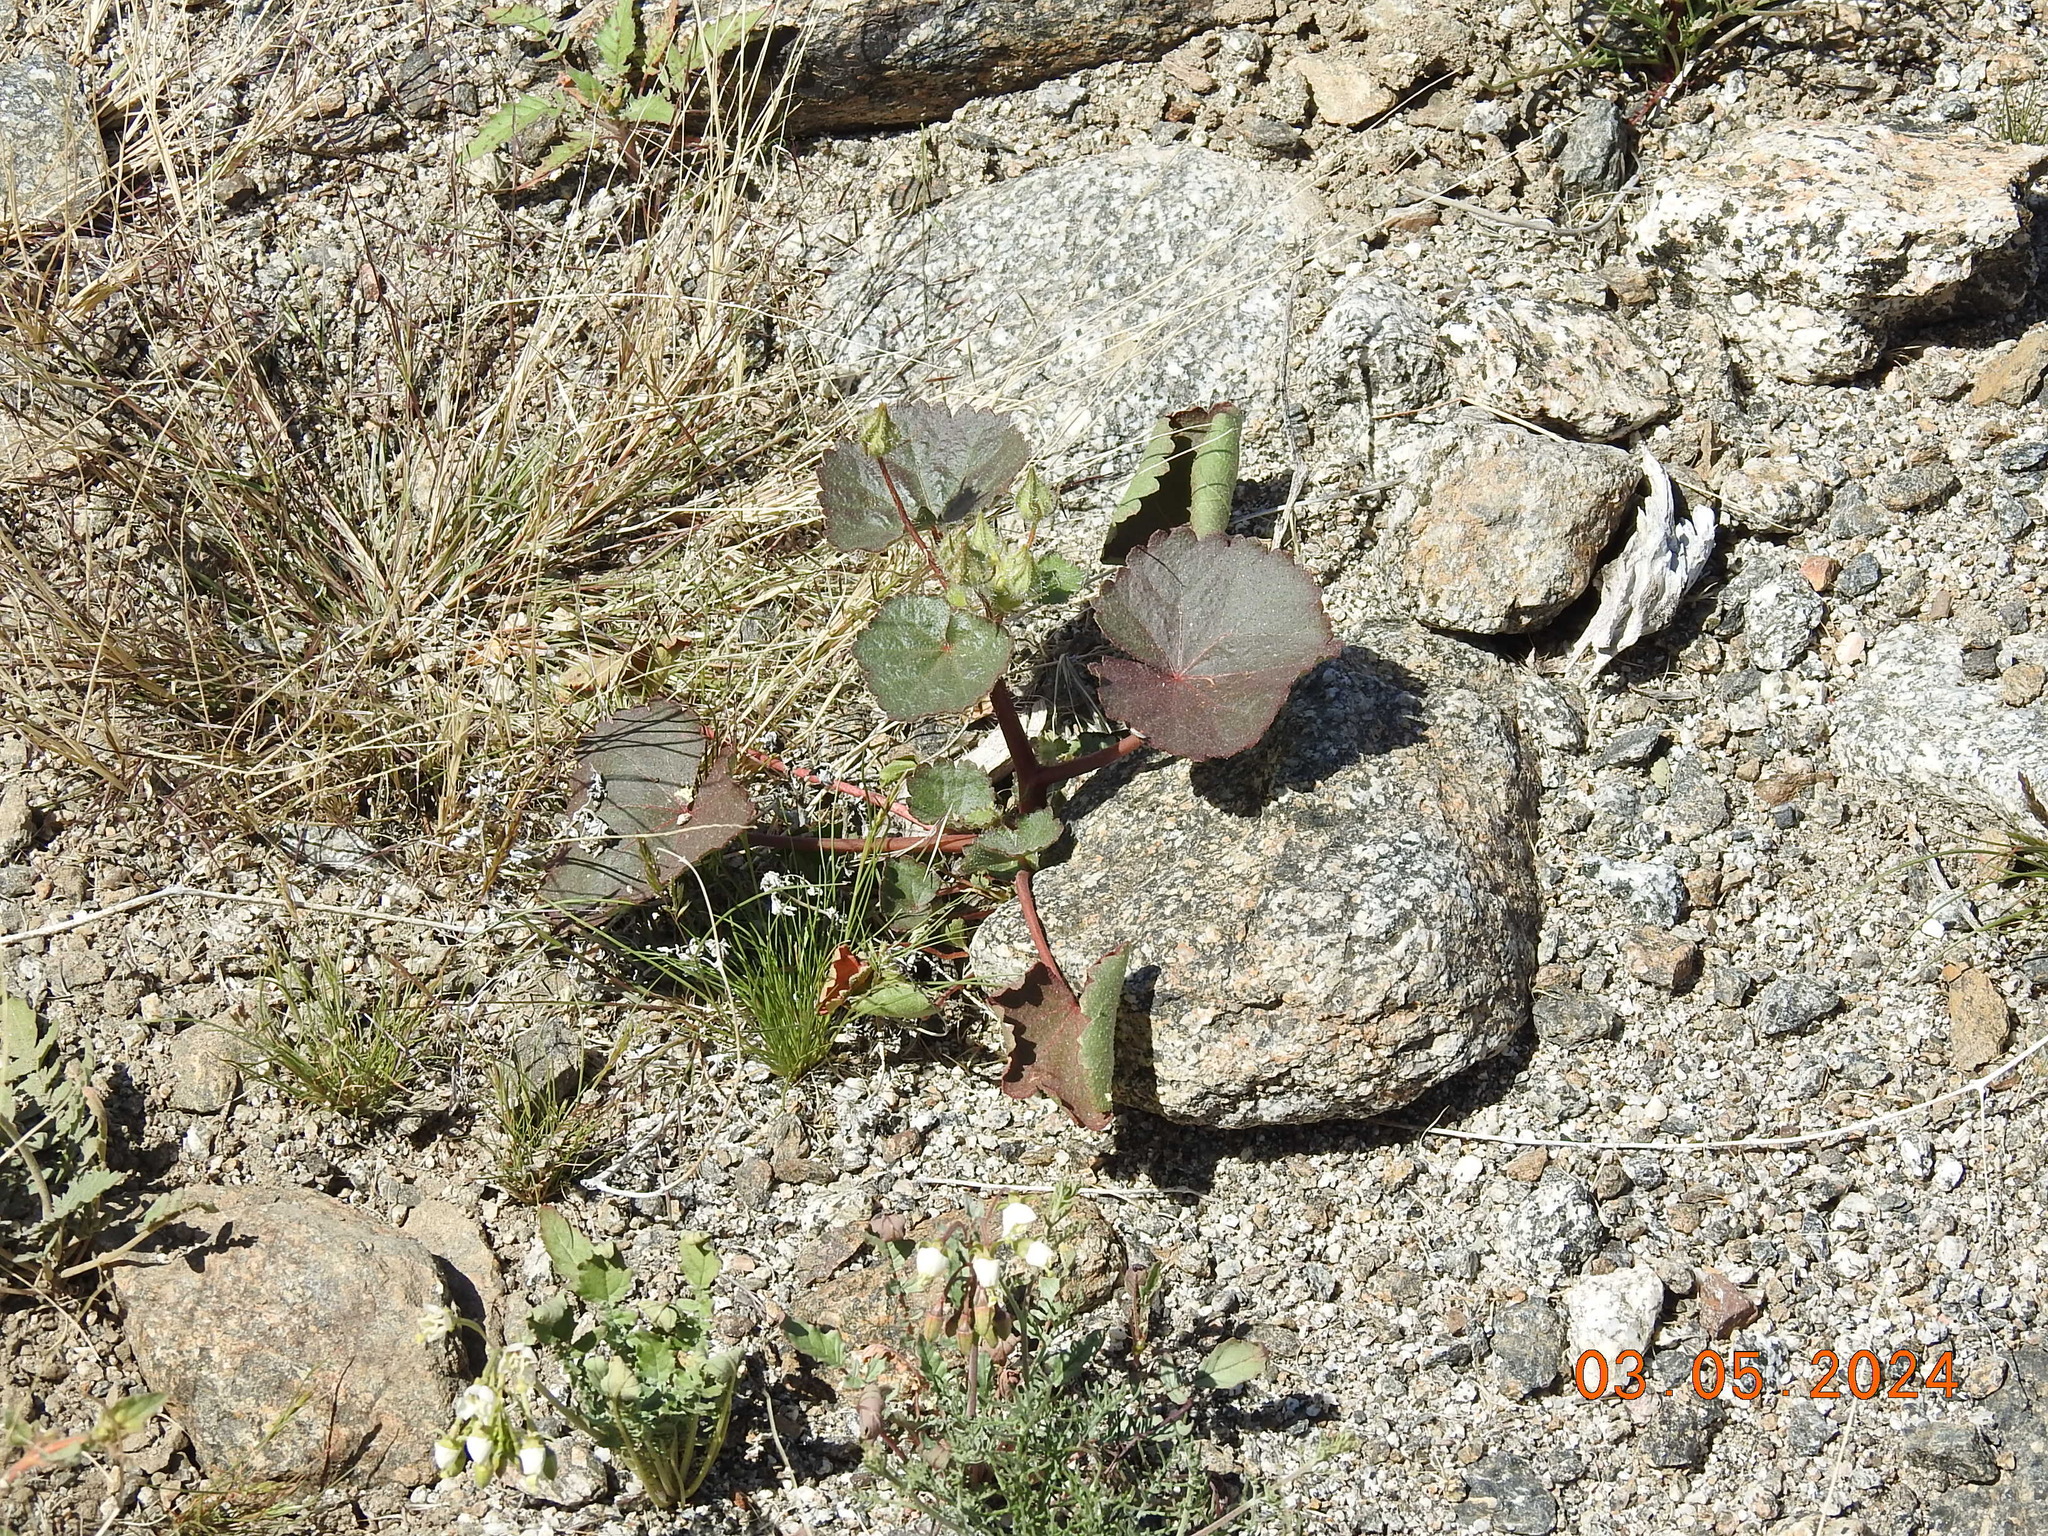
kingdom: Plantae
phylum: Tracheophyta
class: Magnoliopsida
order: Malvales
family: Malvaceae
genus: Eremalche
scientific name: Eremalche rotundifolia
